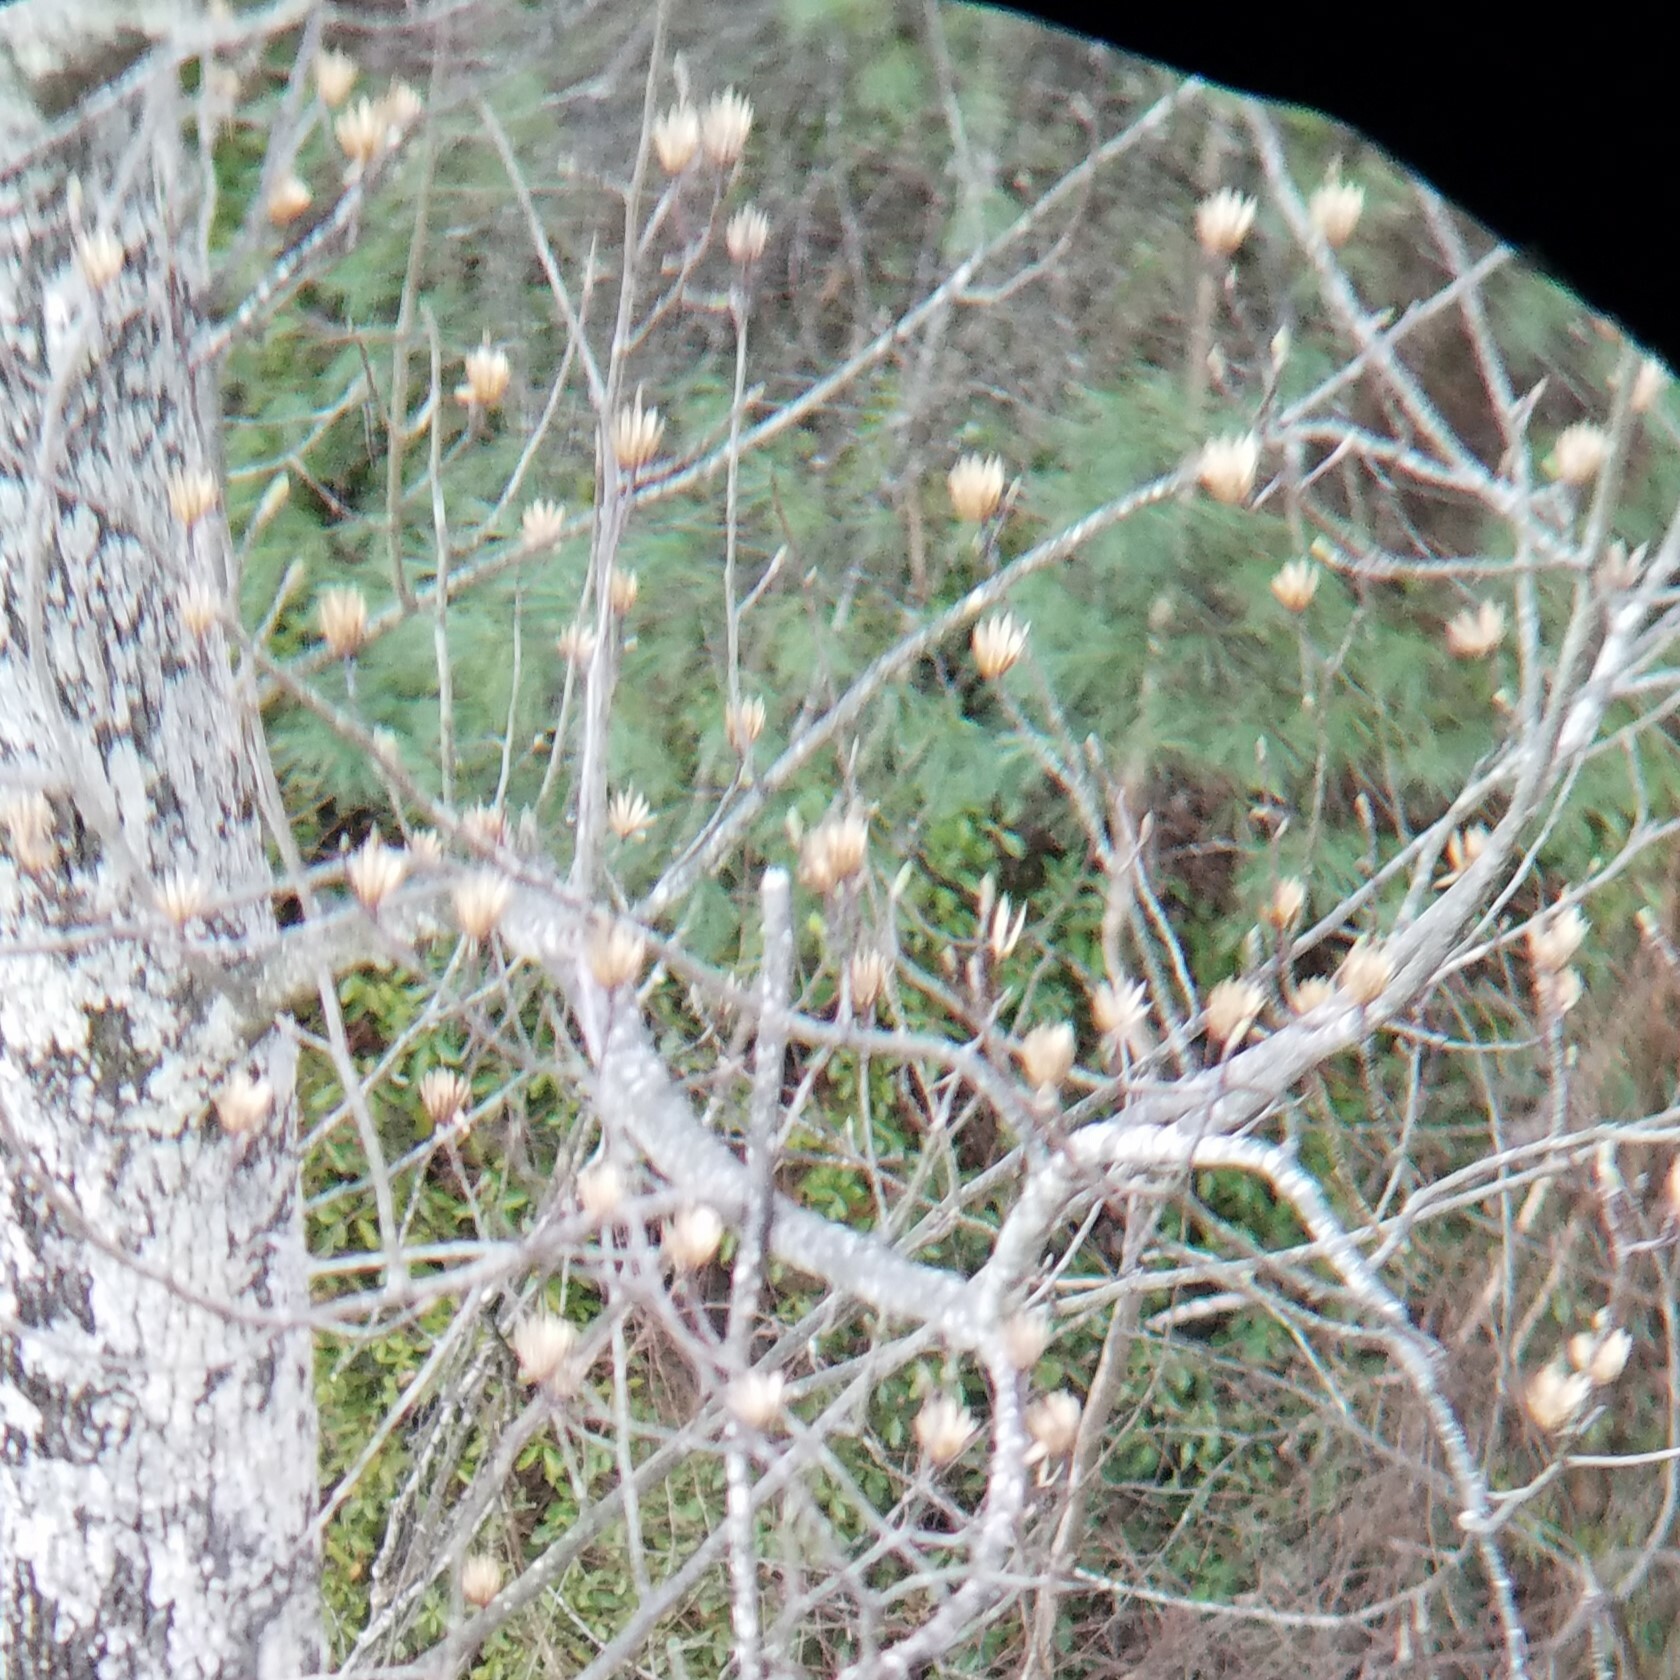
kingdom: Plantae
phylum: Tracheophyta
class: Magnoliopsida
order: Magnoliales
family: Magnoliaceae
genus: Liriodendron
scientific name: Liriodendron tulipifera
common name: Tulip tree
